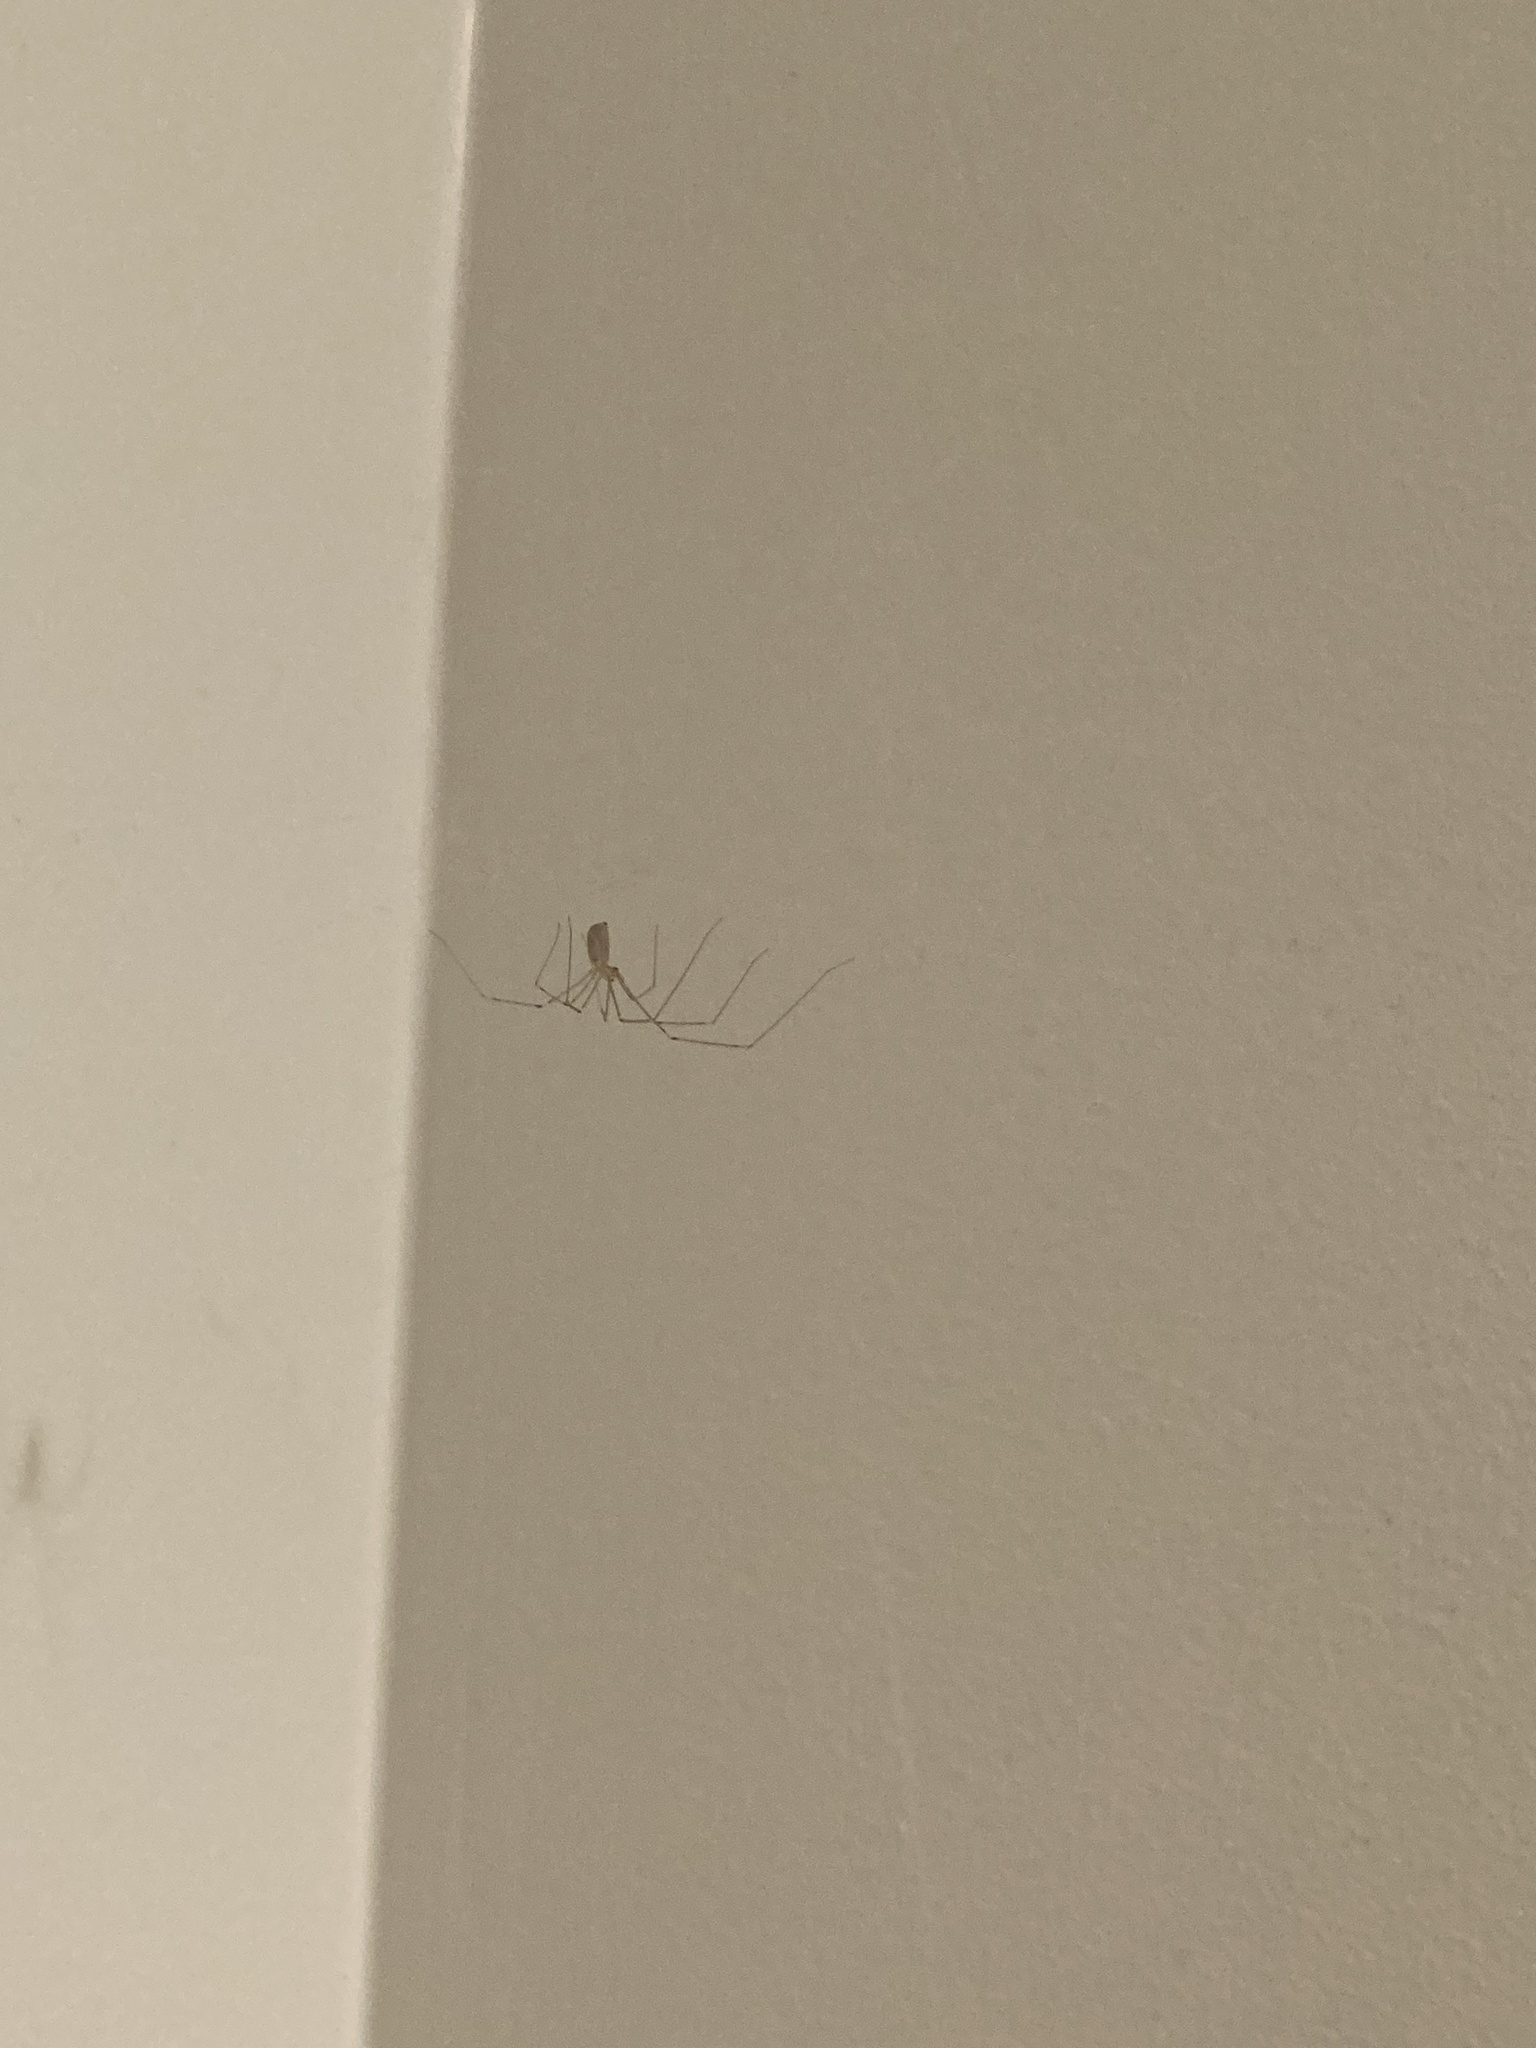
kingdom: Animalia
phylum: Arthropoda
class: Arachnida
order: Araneae
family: Pholcidae
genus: Pholcus
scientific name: Pholcus phalangioides
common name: Longbodied cellar spider
